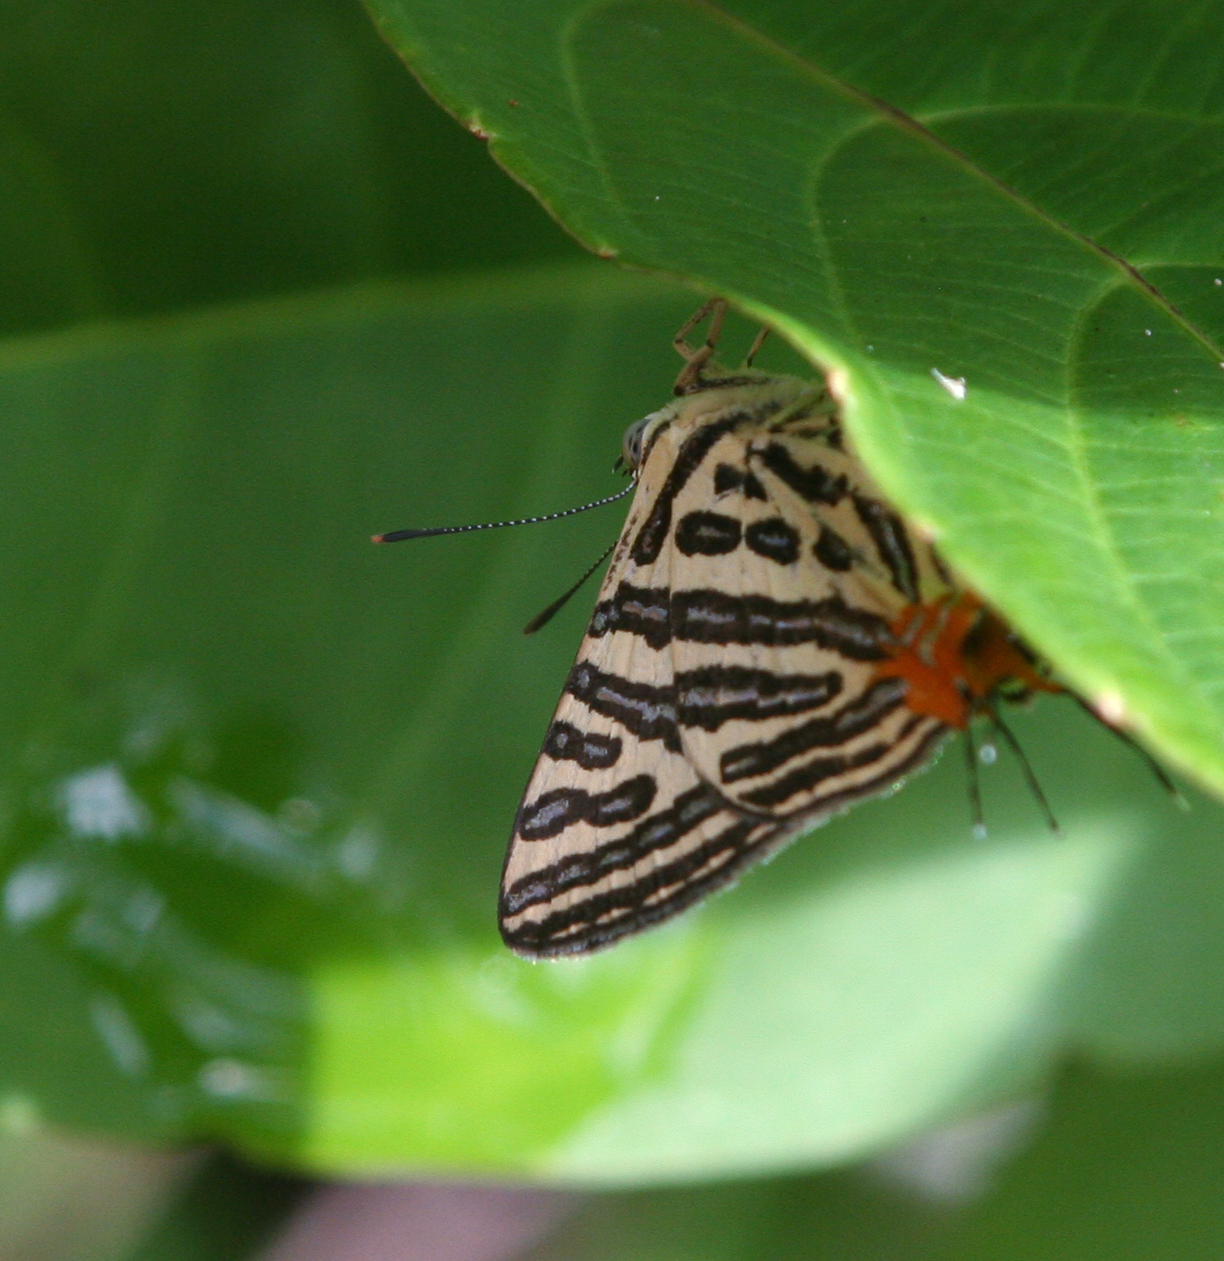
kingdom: Animalia
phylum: Arthropoda
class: Insecta
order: Lepidoptera
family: Lycaenidae
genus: Cigaritis
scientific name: Cigaritis syama
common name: Club silverline
